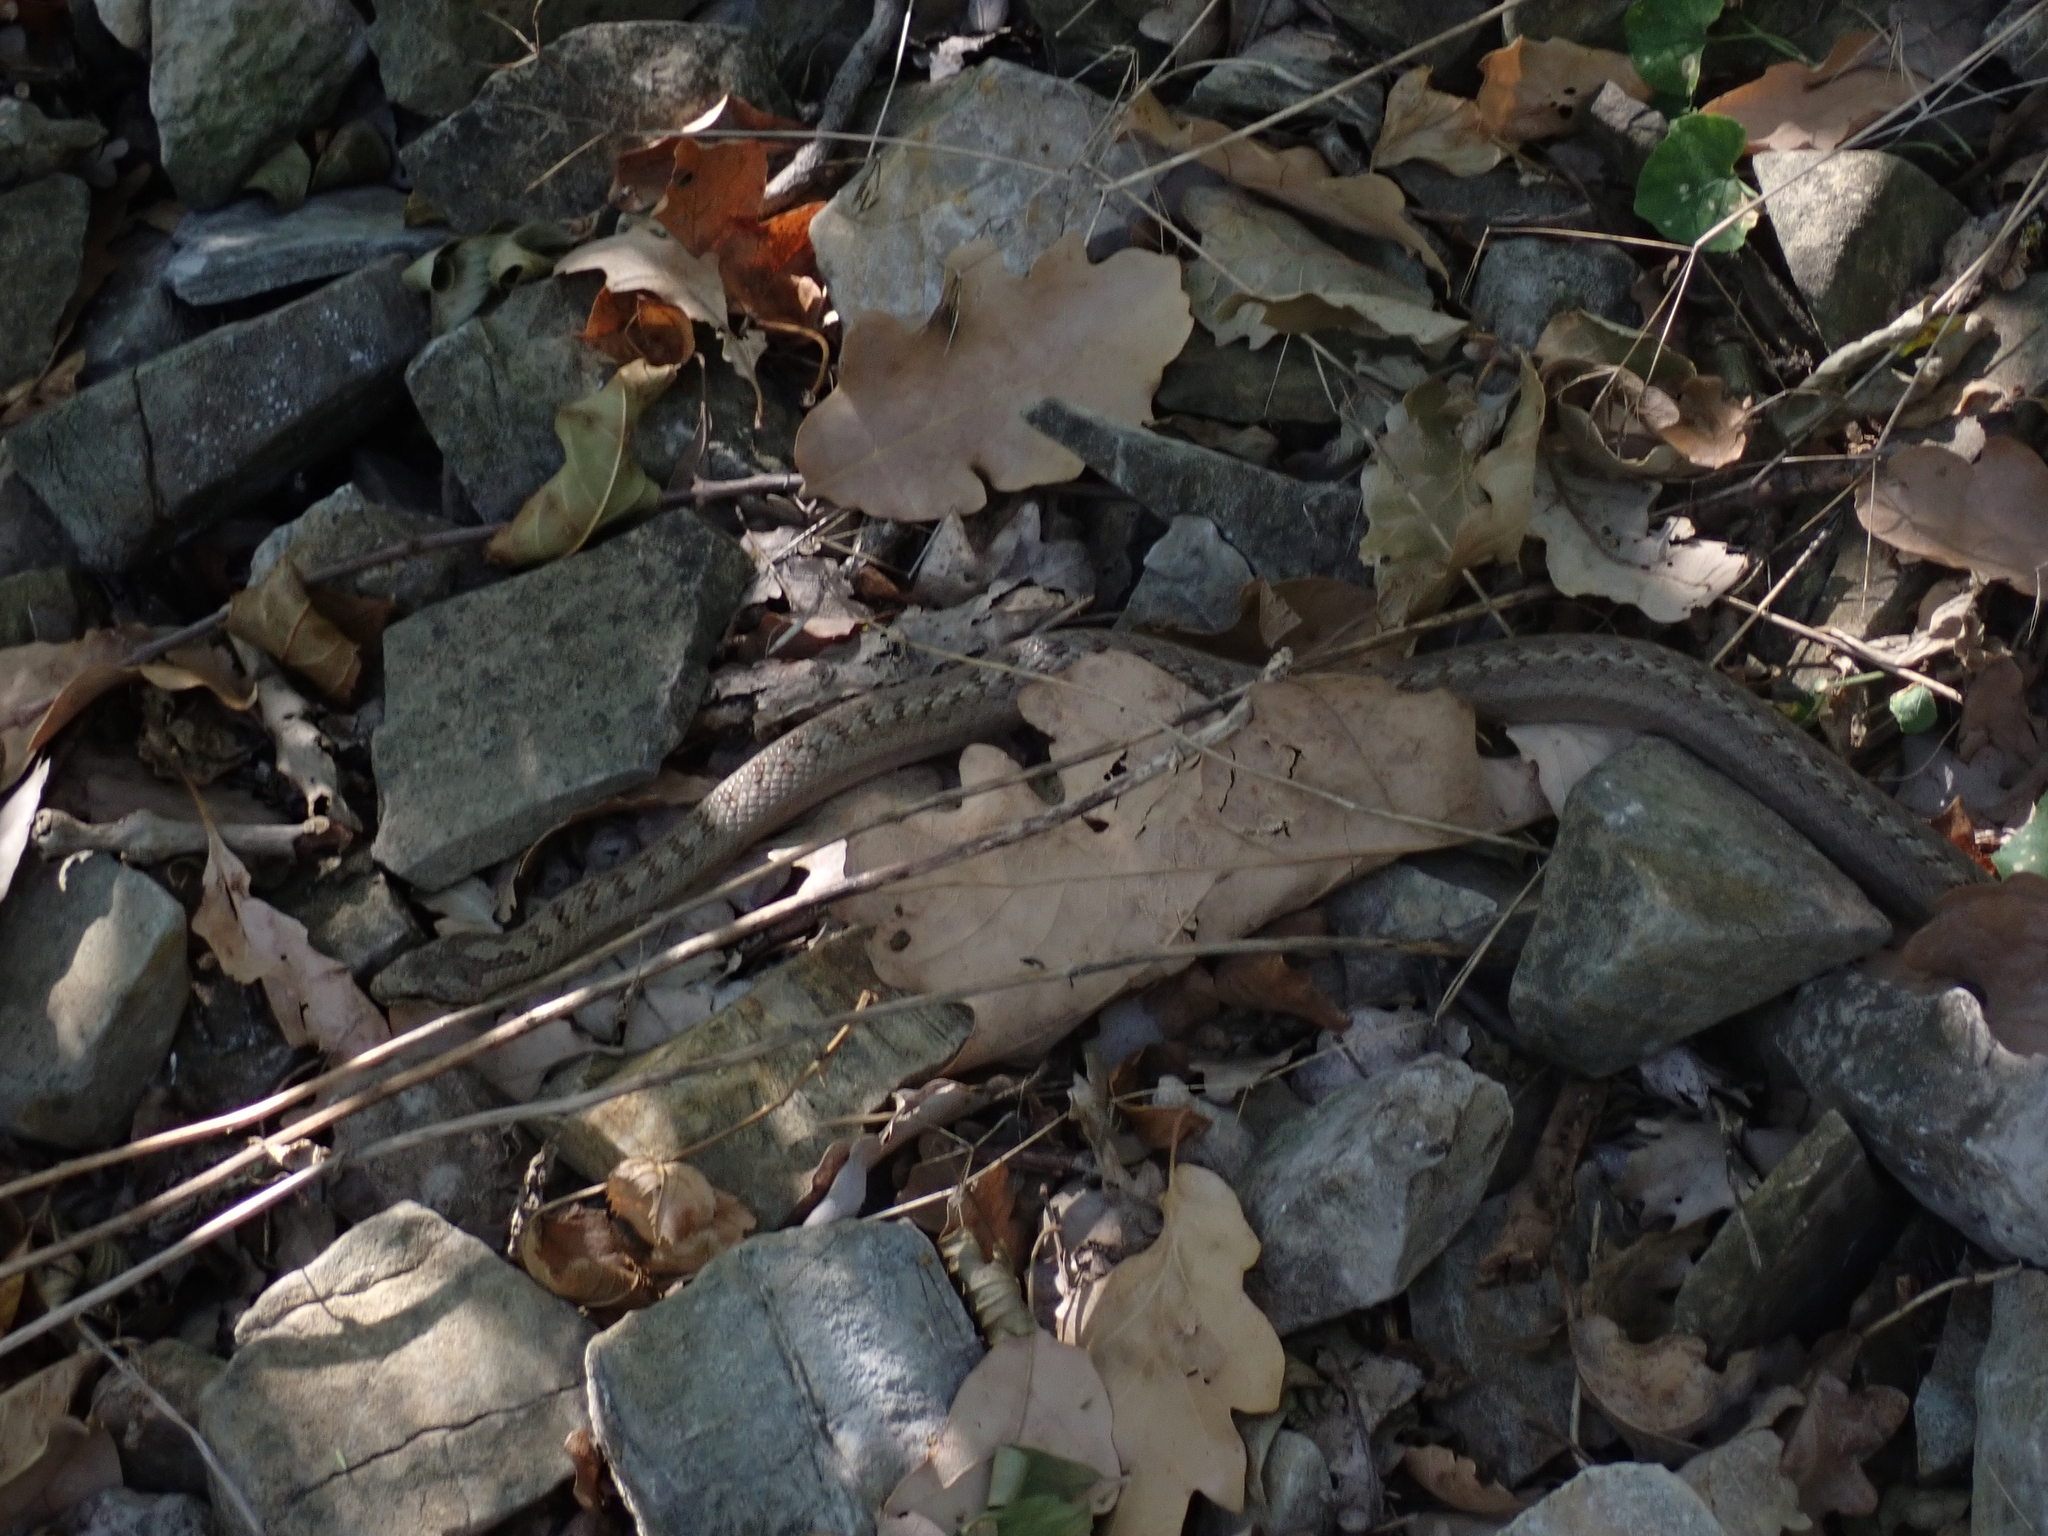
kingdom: Animalia
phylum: Chordata
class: Squamata
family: Colubridae
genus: Coronella
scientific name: Coronella austriaca
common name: Smooth snake
